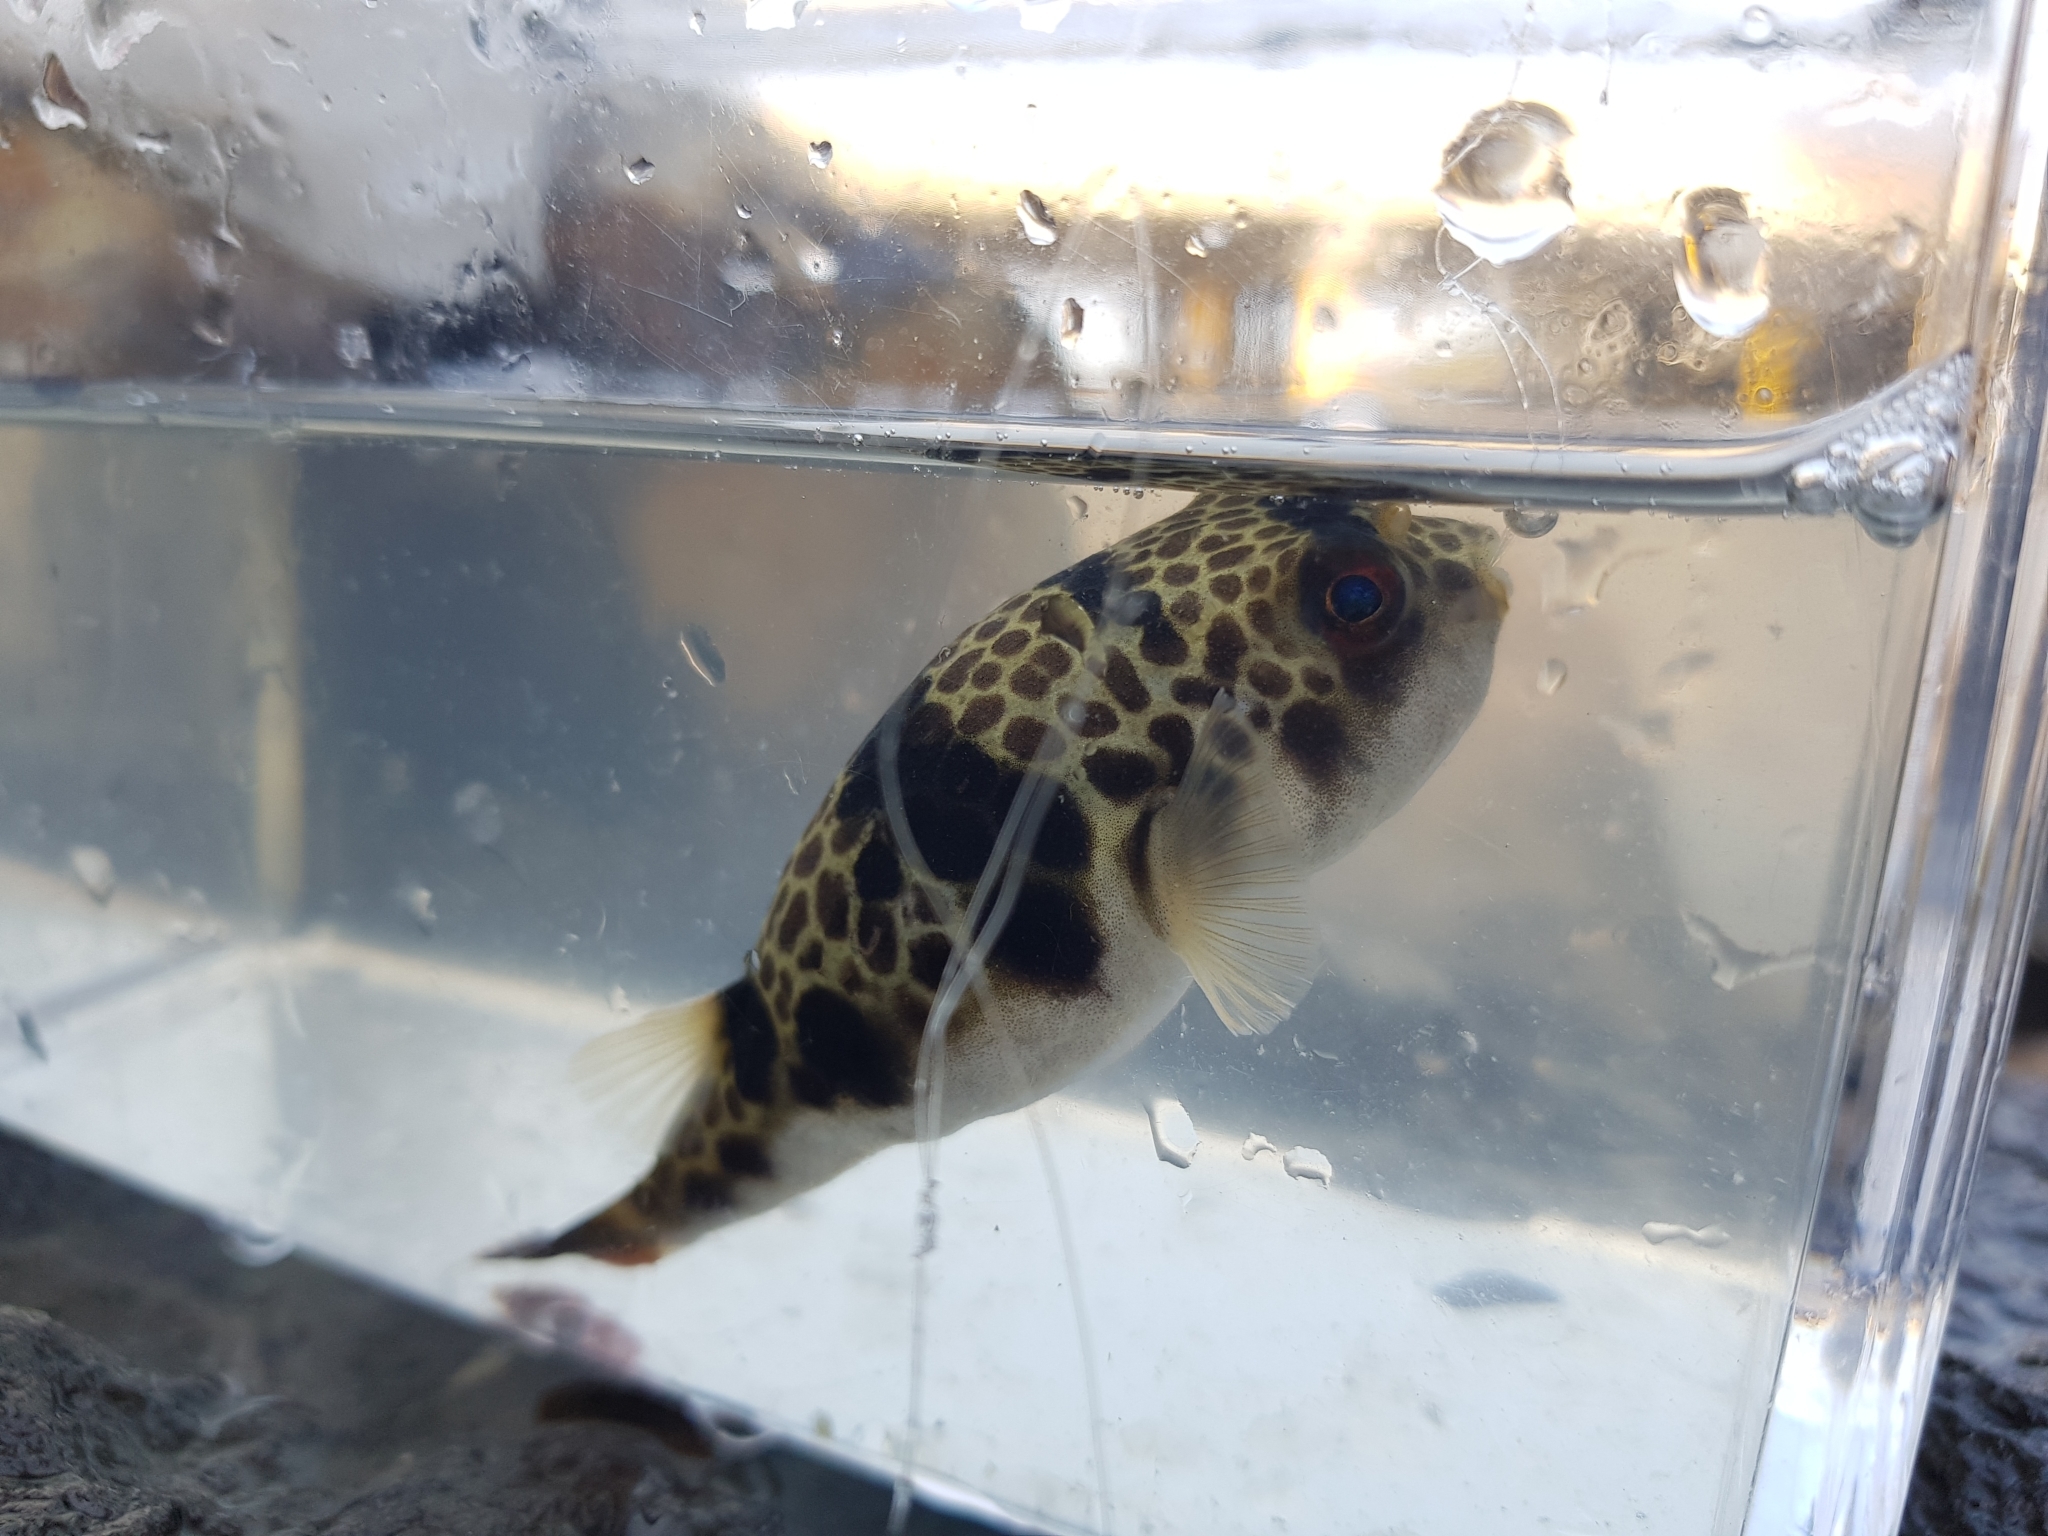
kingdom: Animalia
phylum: Chordata
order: Tetraodontiformes
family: Tetraodontidae
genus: Tetractenos
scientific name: Tetractenos glaber
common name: Smooth toadfish
